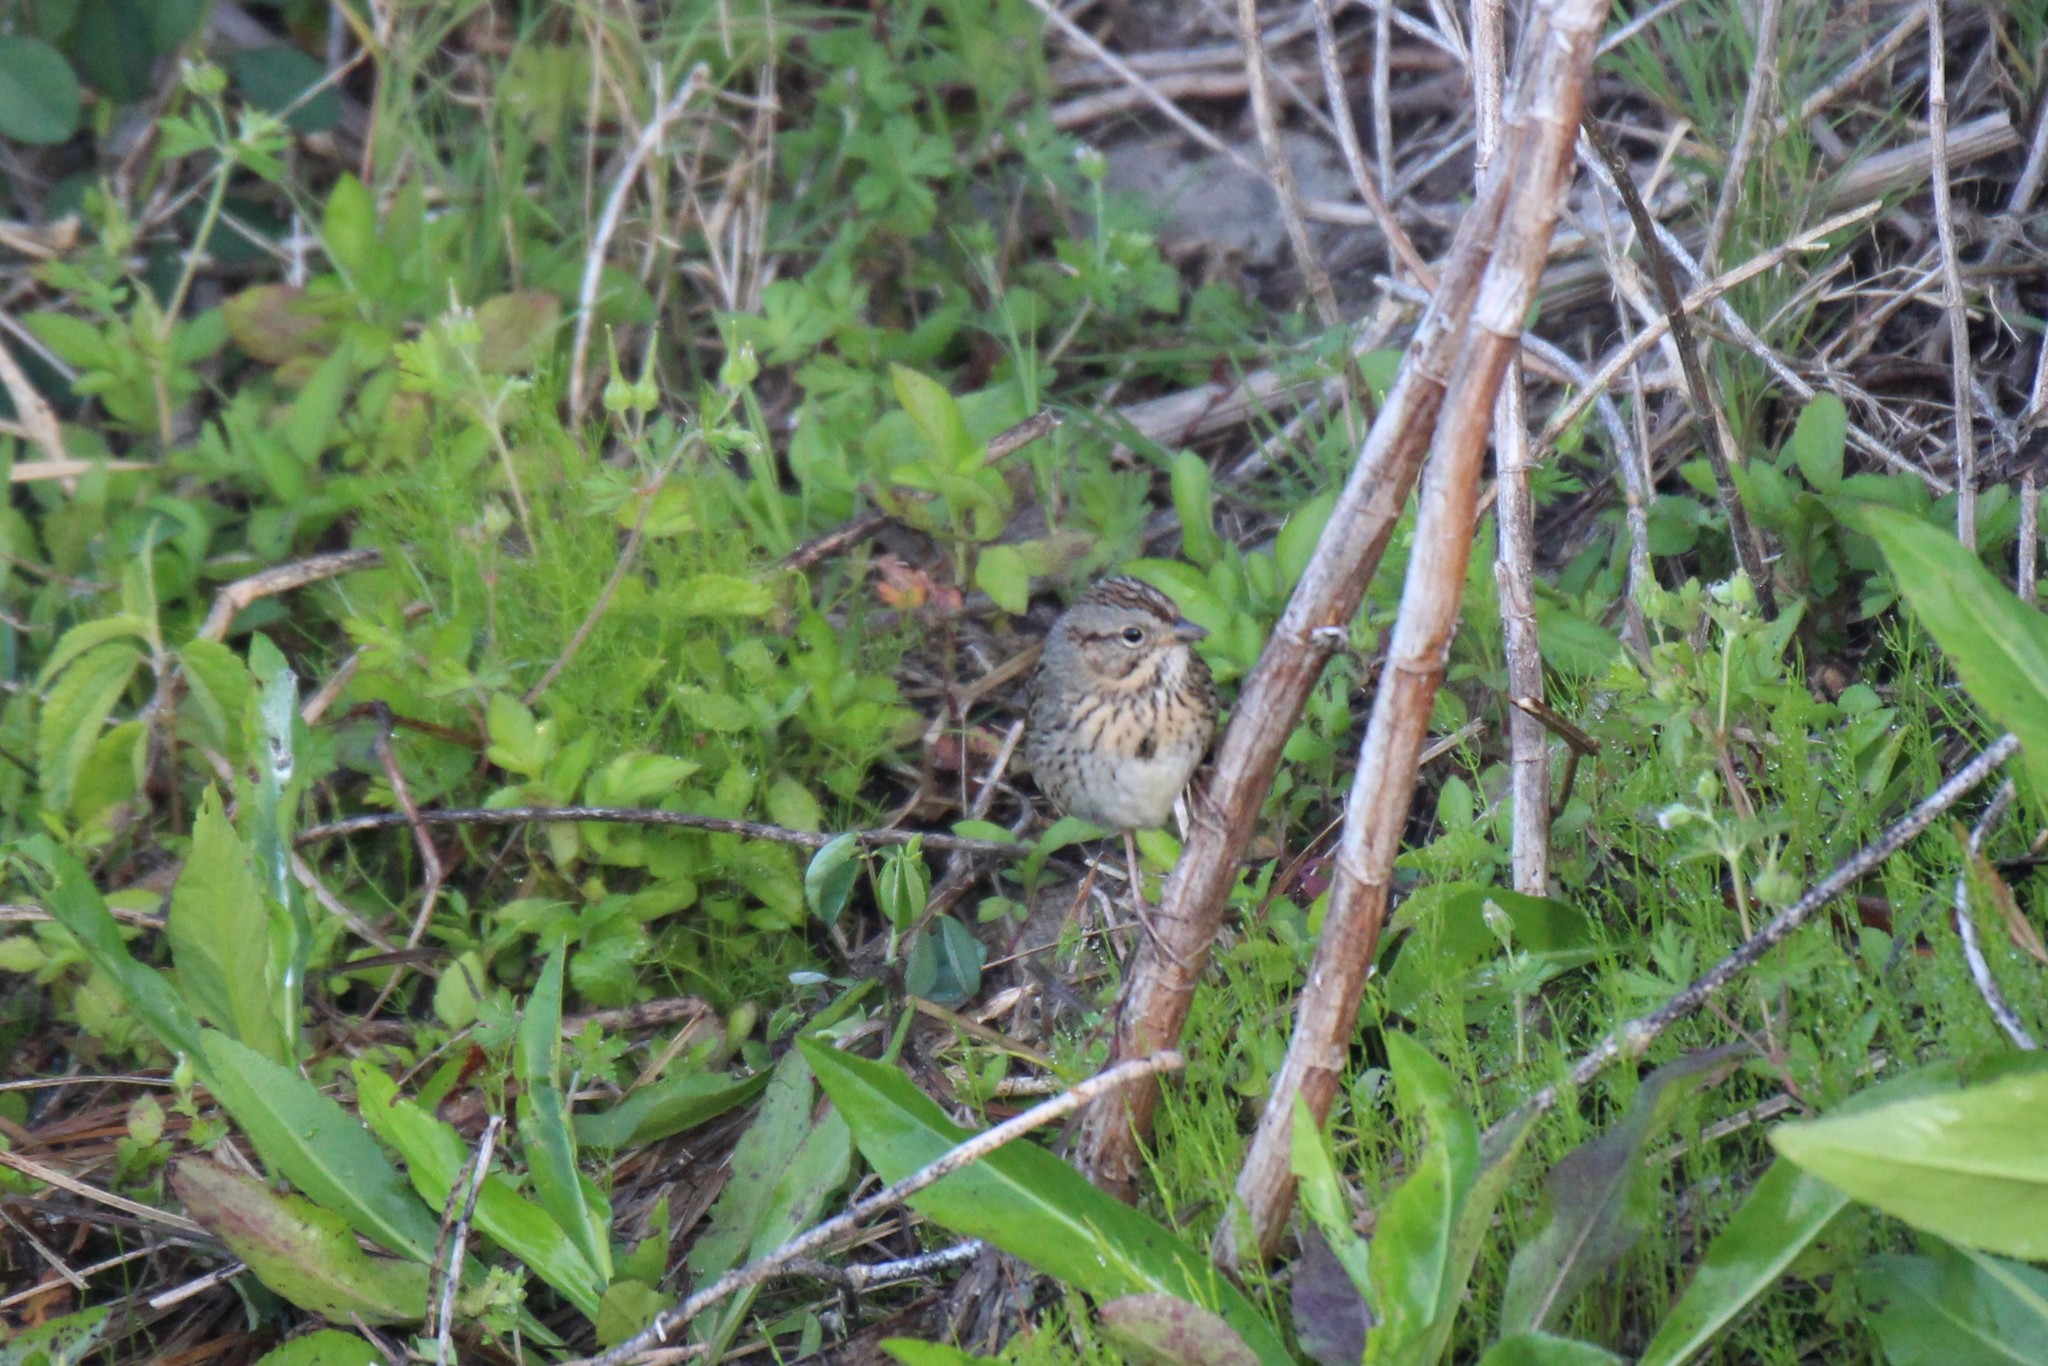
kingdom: Animalia
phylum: Chordata
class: Aves
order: Passeriformes
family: Passerellidae
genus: Melospiza
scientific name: Melospiza lincolnii
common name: Lincoln's sparrow
